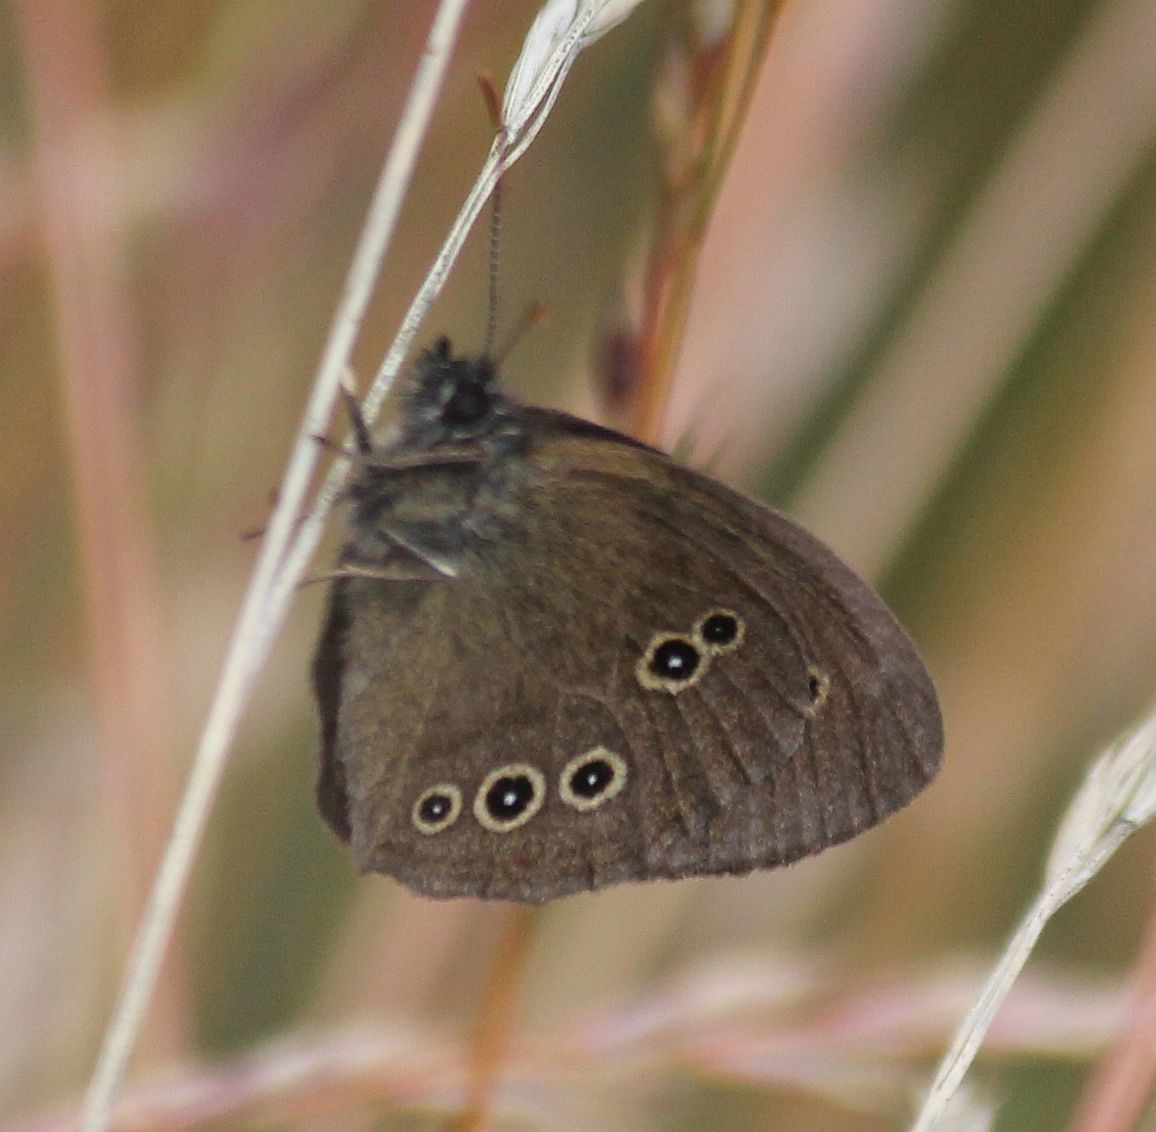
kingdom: Animalia
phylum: Arthropoda
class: Insecta
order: Lepidoptera
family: Nymphalidae
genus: Aphantopus
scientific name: Aphantopus hyperantus
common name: Ringlet
